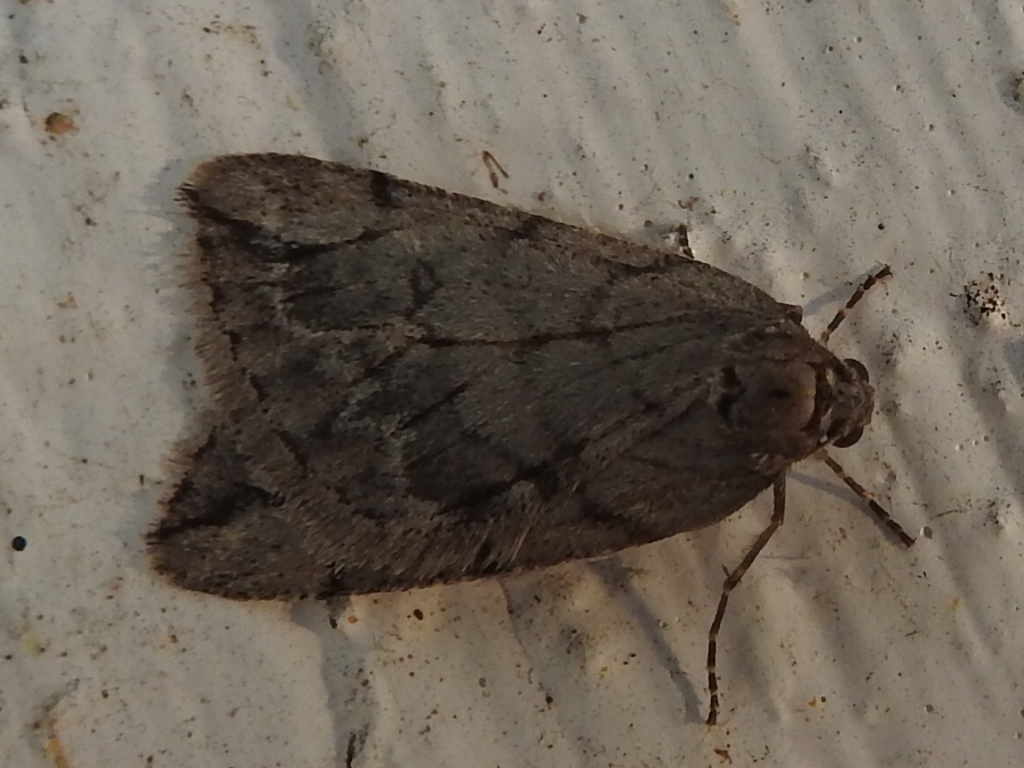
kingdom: Animalia
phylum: Arthropoda
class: Insecta
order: Lepidoptera
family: Geometridae
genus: Paleacrita
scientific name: Paleacrita vernata
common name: Spring cankerworm
